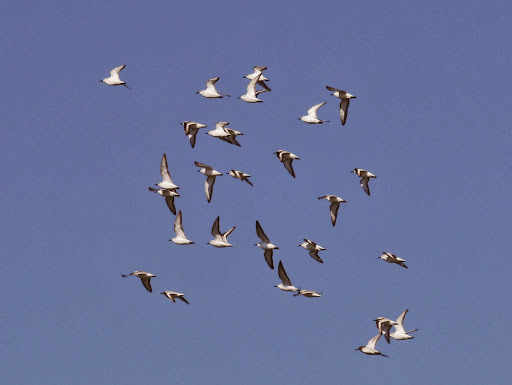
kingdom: Animalia
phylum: Chordata
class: Aves
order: Charadriiformes
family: Scolopacidae
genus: Calidris
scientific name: Calidris alba
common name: Sanderling
